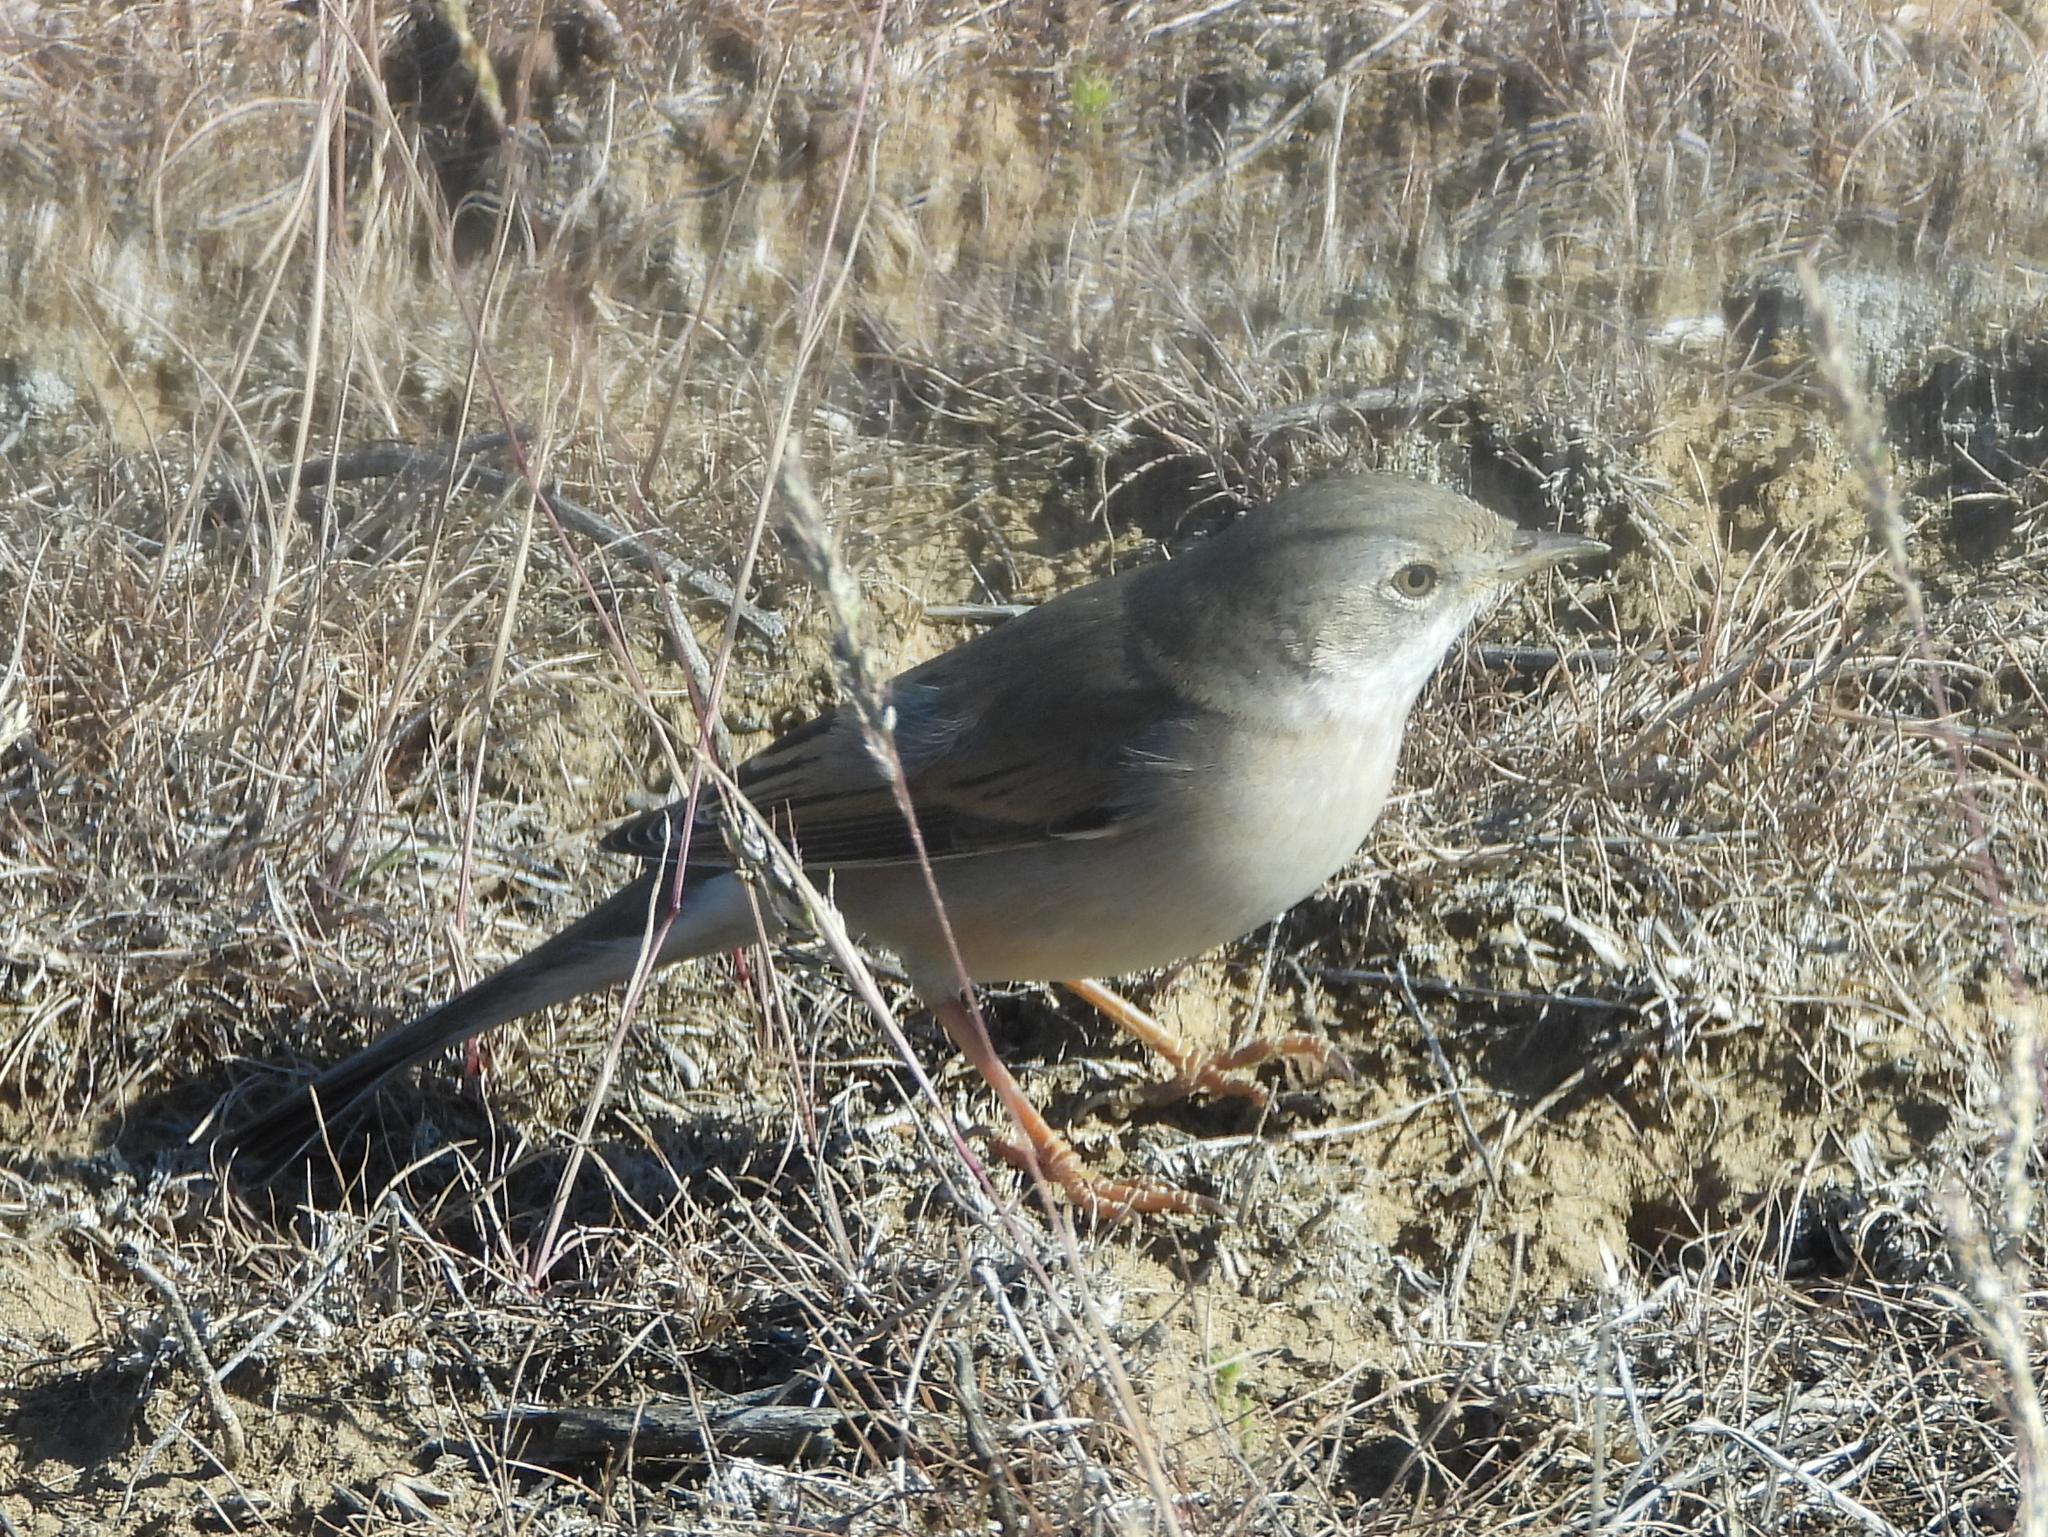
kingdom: Animalia
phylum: Chordata
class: Aves
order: Passeriformes
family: Sylviidae
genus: Sylvia
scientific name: Sylvia communis
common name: Common whitethroat
